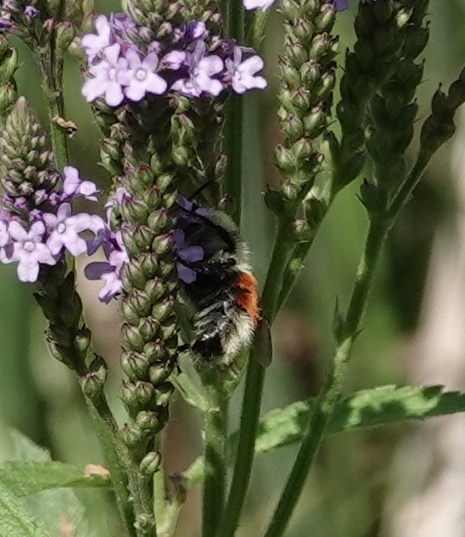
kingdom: Animalia
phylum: Arthropoda
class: Insecta
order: Hymenoptera
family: Apidae
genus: Bombus
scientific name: Bombus huntii
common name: Hunt bumble bee
